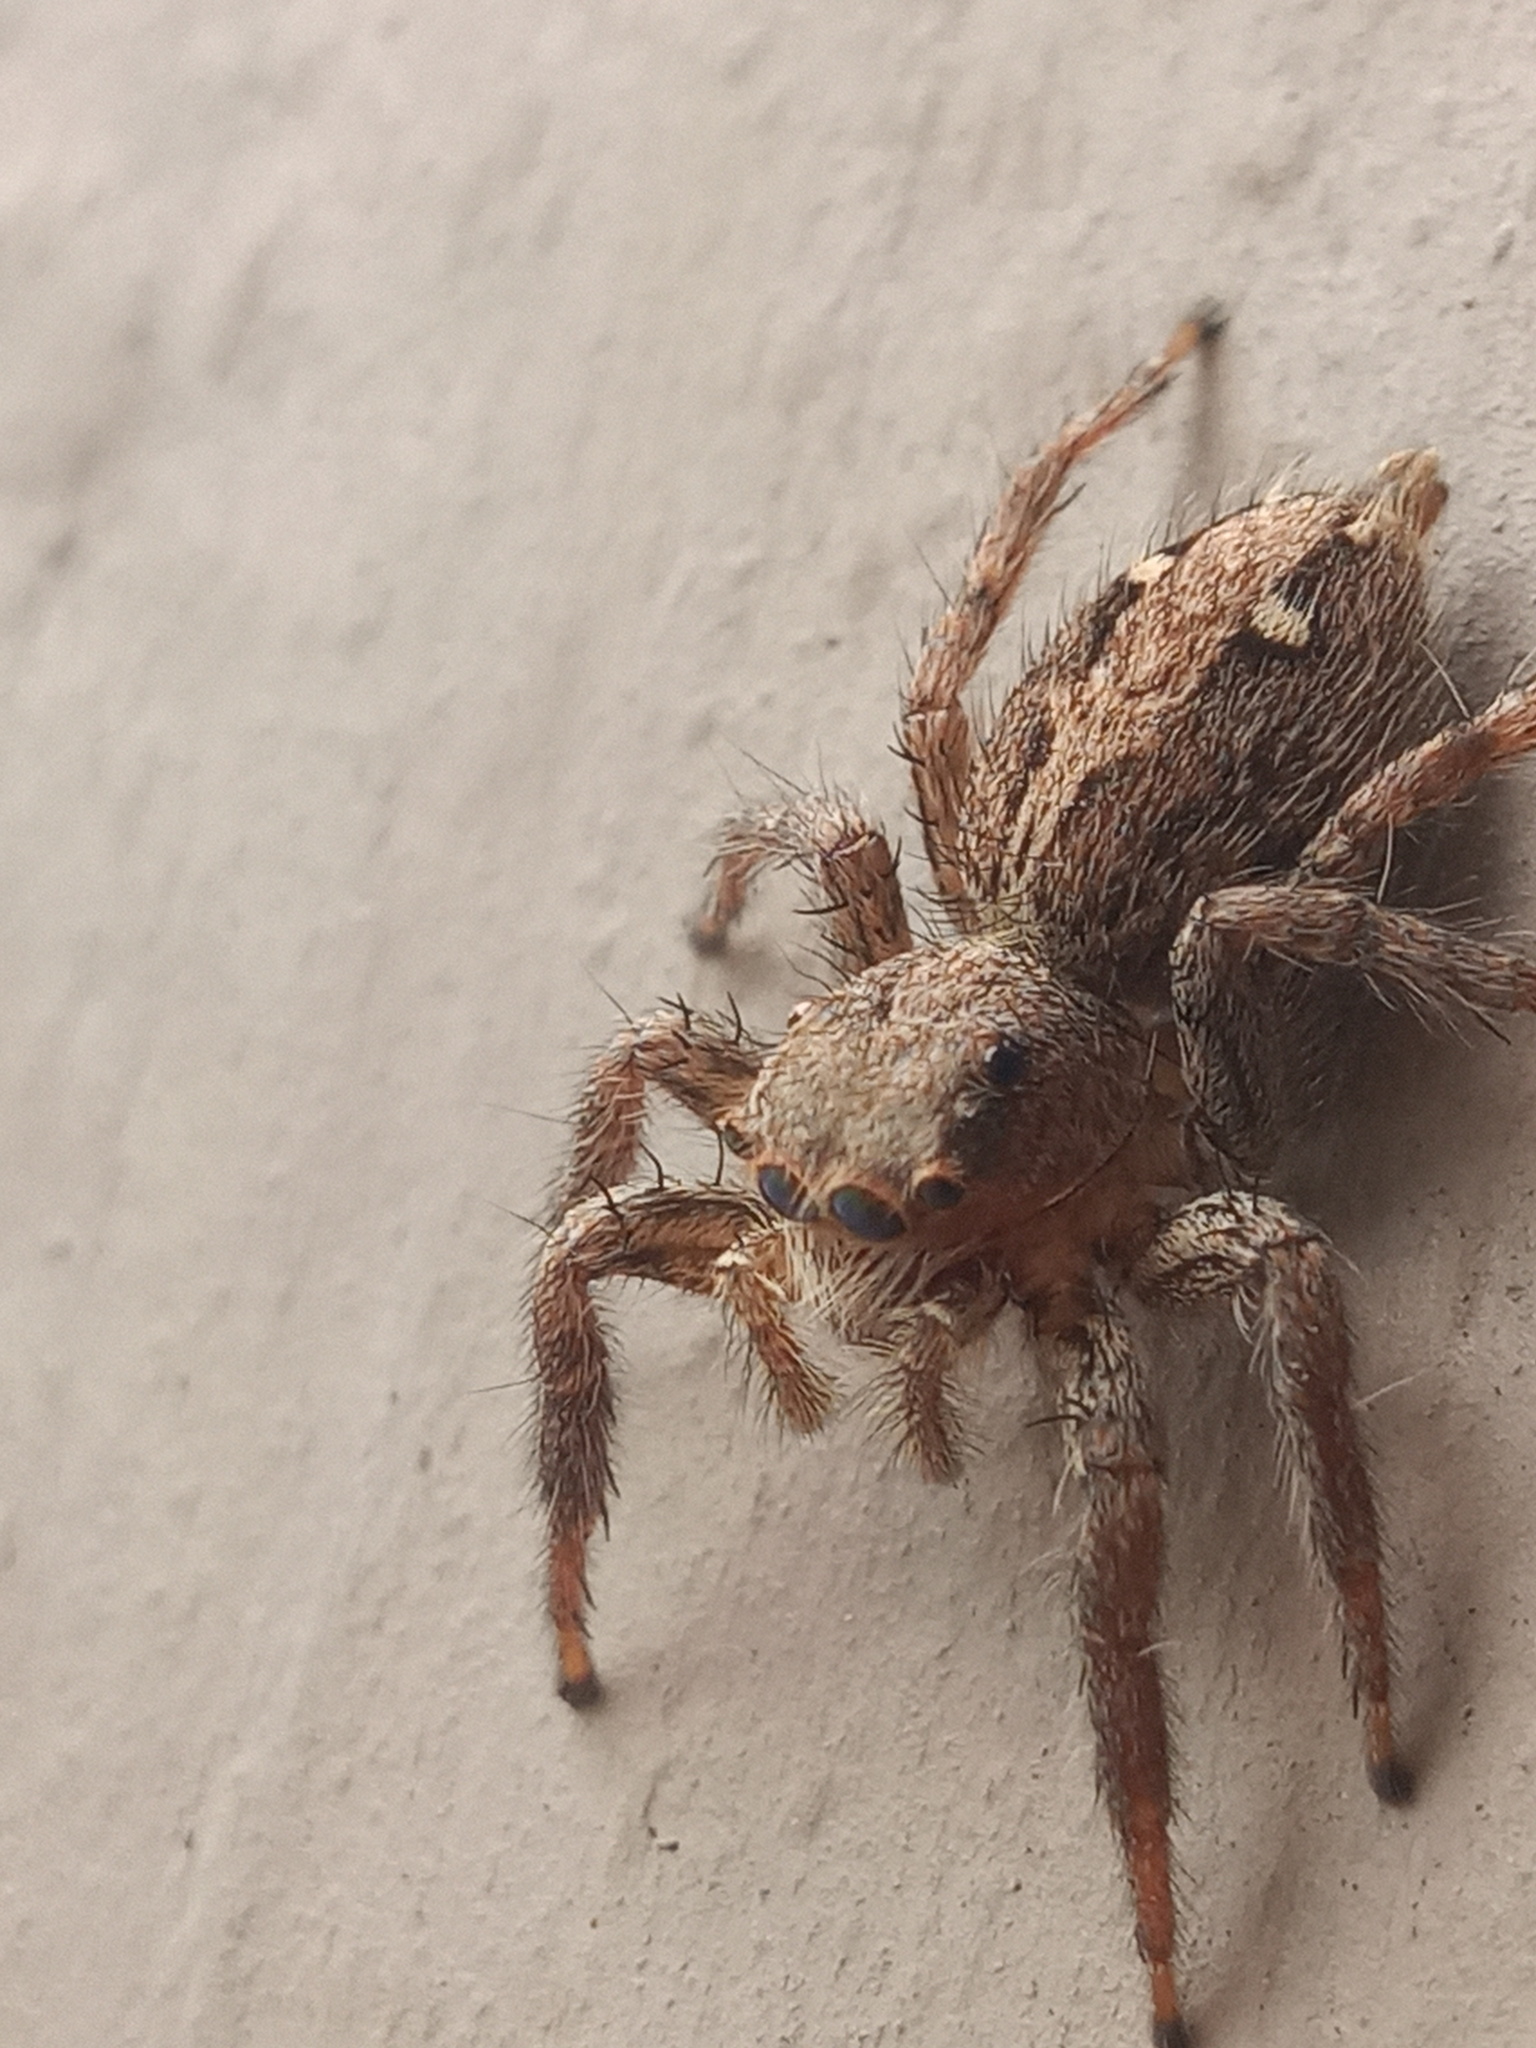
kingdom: Animalia
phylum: Arthropoda
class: Arachnida
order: Araneae
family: Salticidae
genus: Plexippus
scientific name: Plexippus paykulli
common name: Pantropical jumper
